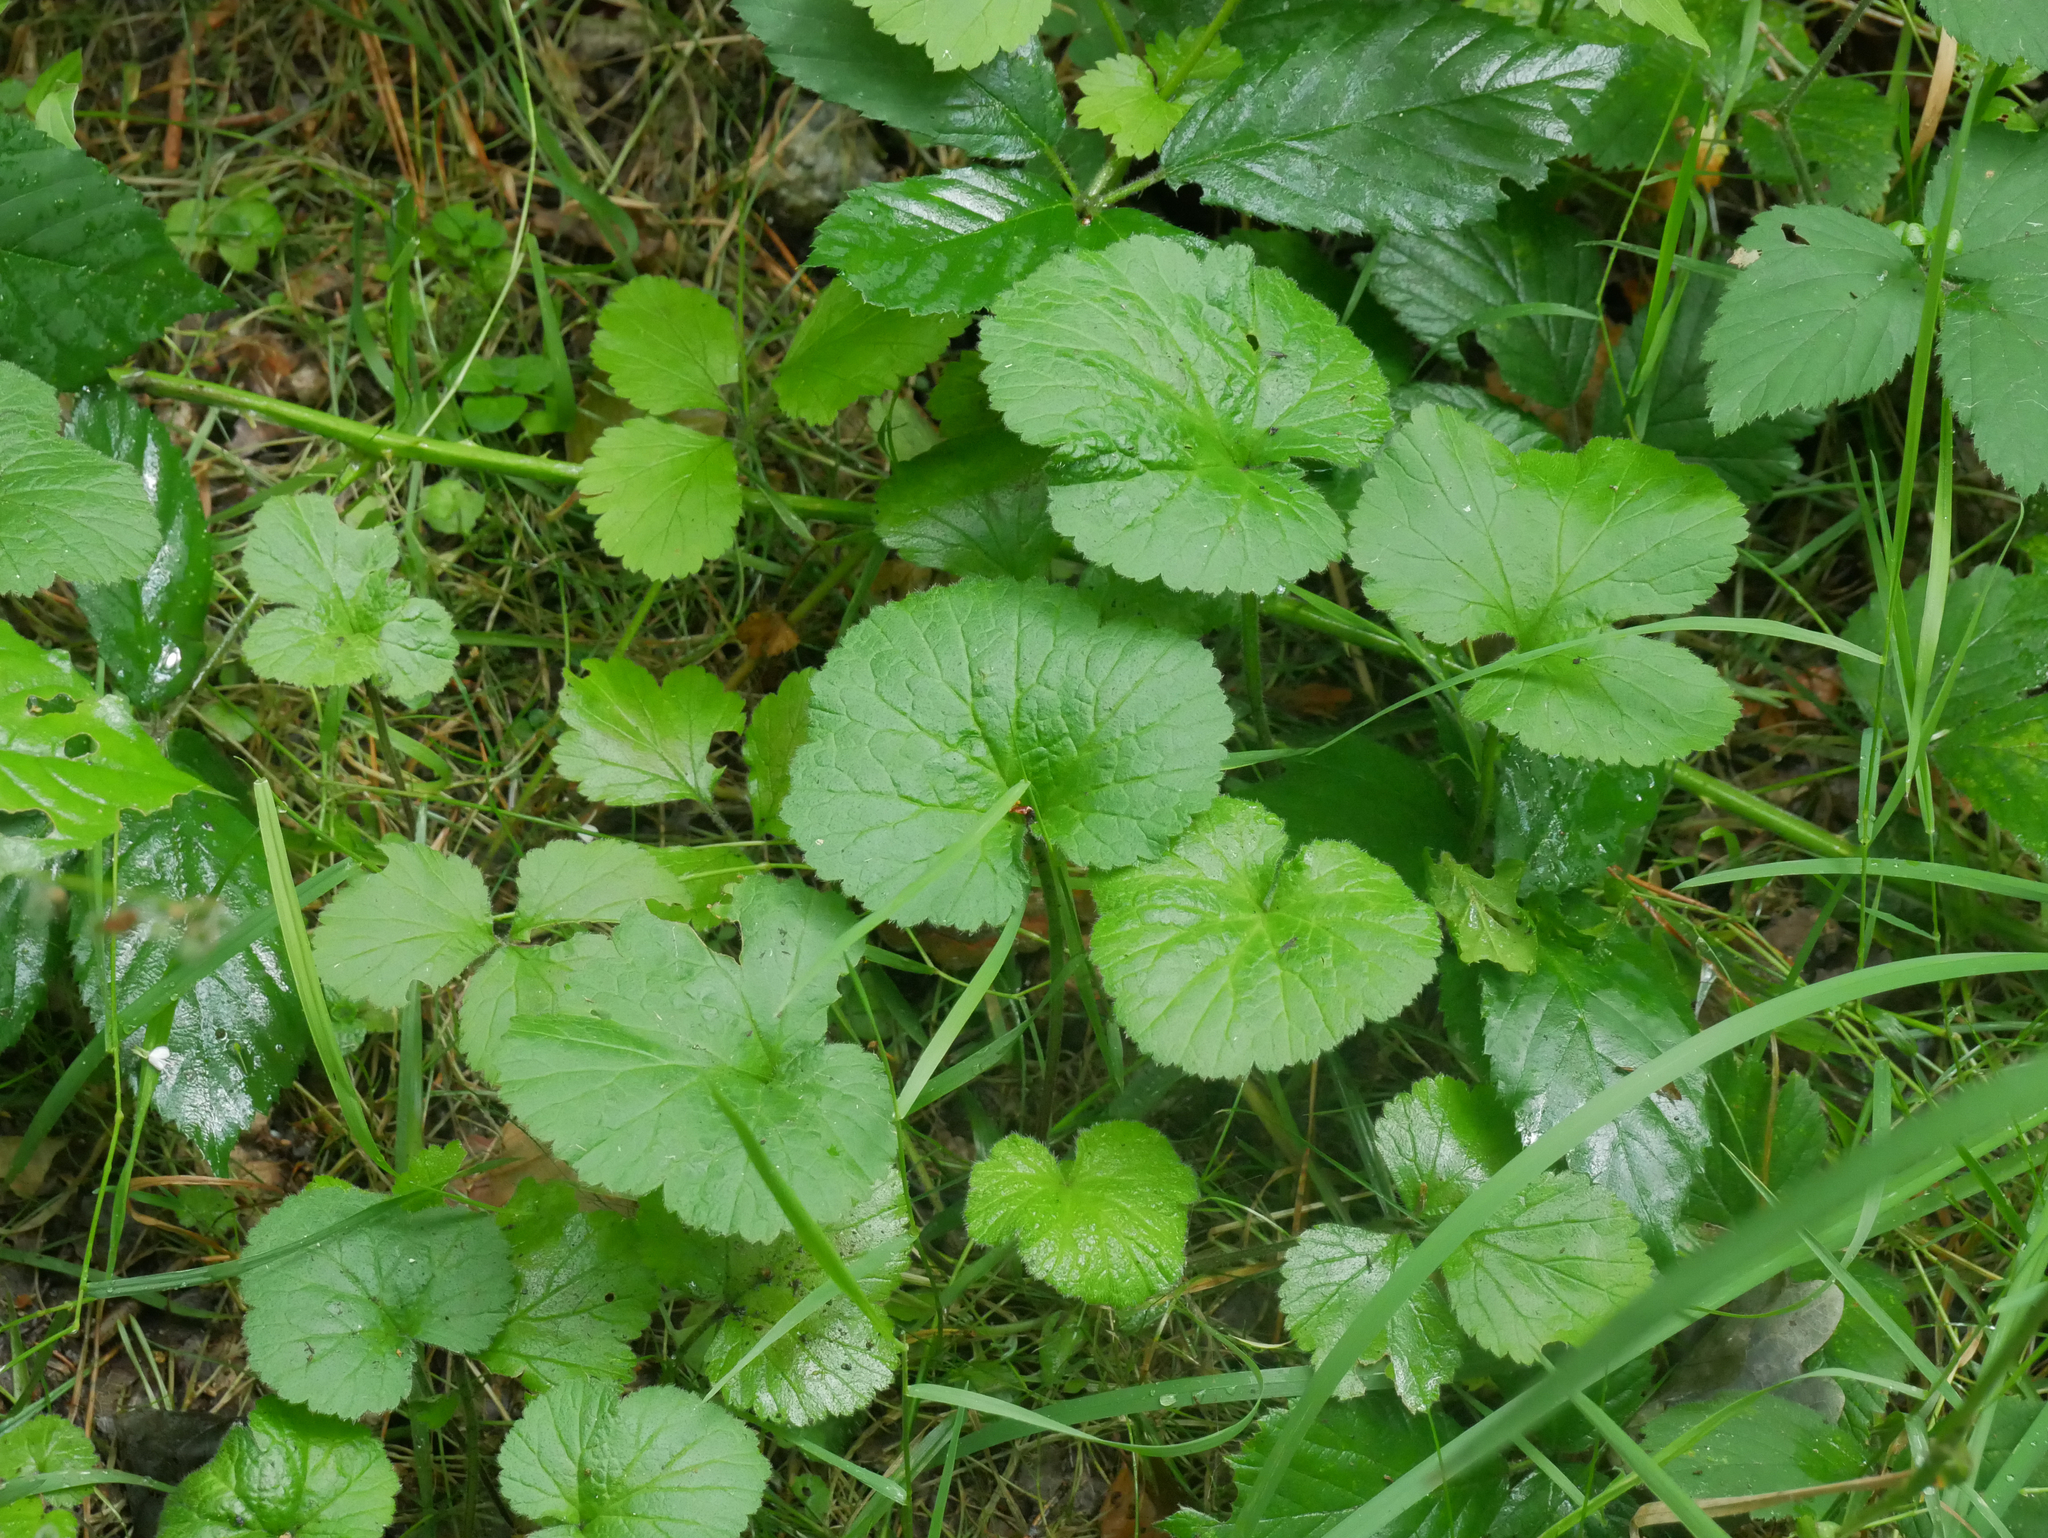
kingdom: Plantae
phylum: Tracheophyta
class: Magnoliopsida
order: Rosales
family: Rosaceae
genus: Geum
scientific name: Geum urbanum
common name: Wood avens
